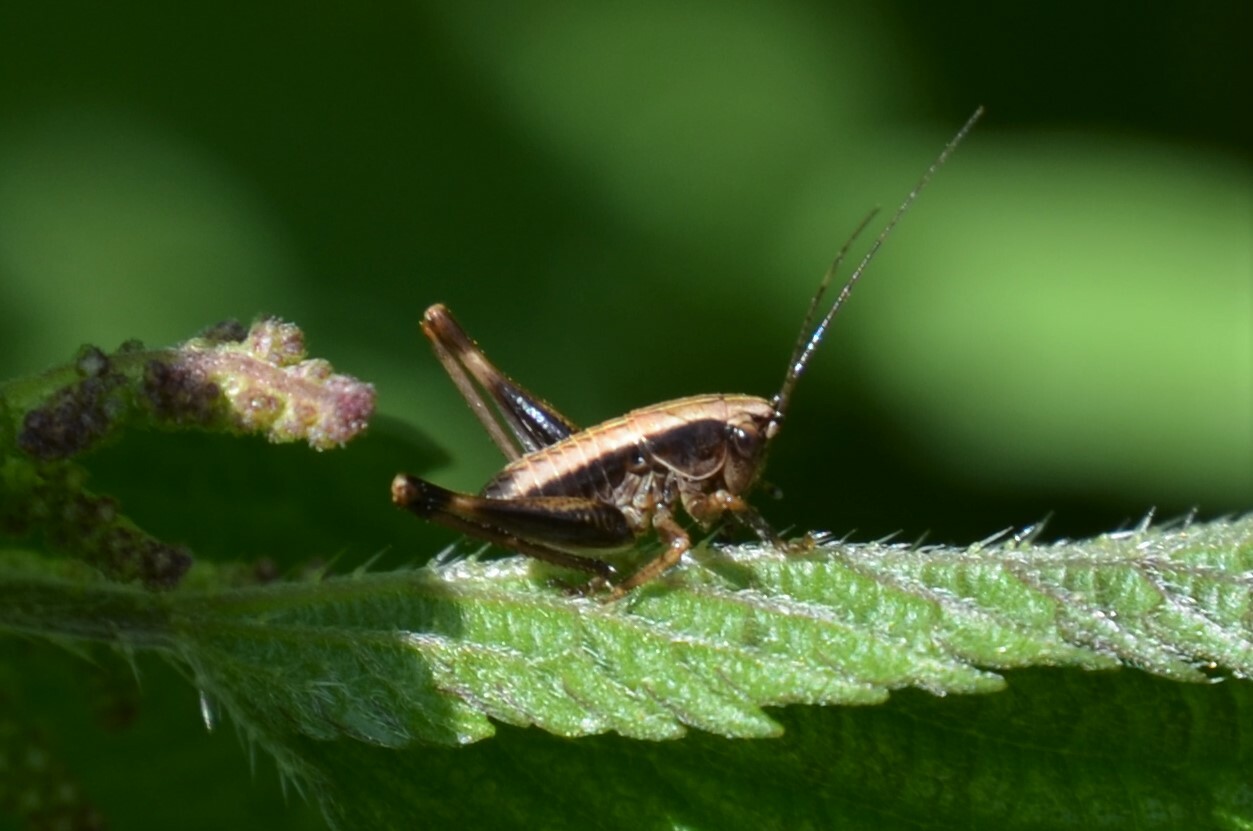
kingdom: Animalia
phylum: Arthropoda
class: Insecta
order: Orthoptera
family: Tettigoniidae
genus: Pholidoptera
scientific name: Pholidoptera griseoaptera
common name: Dark bush-cricket
